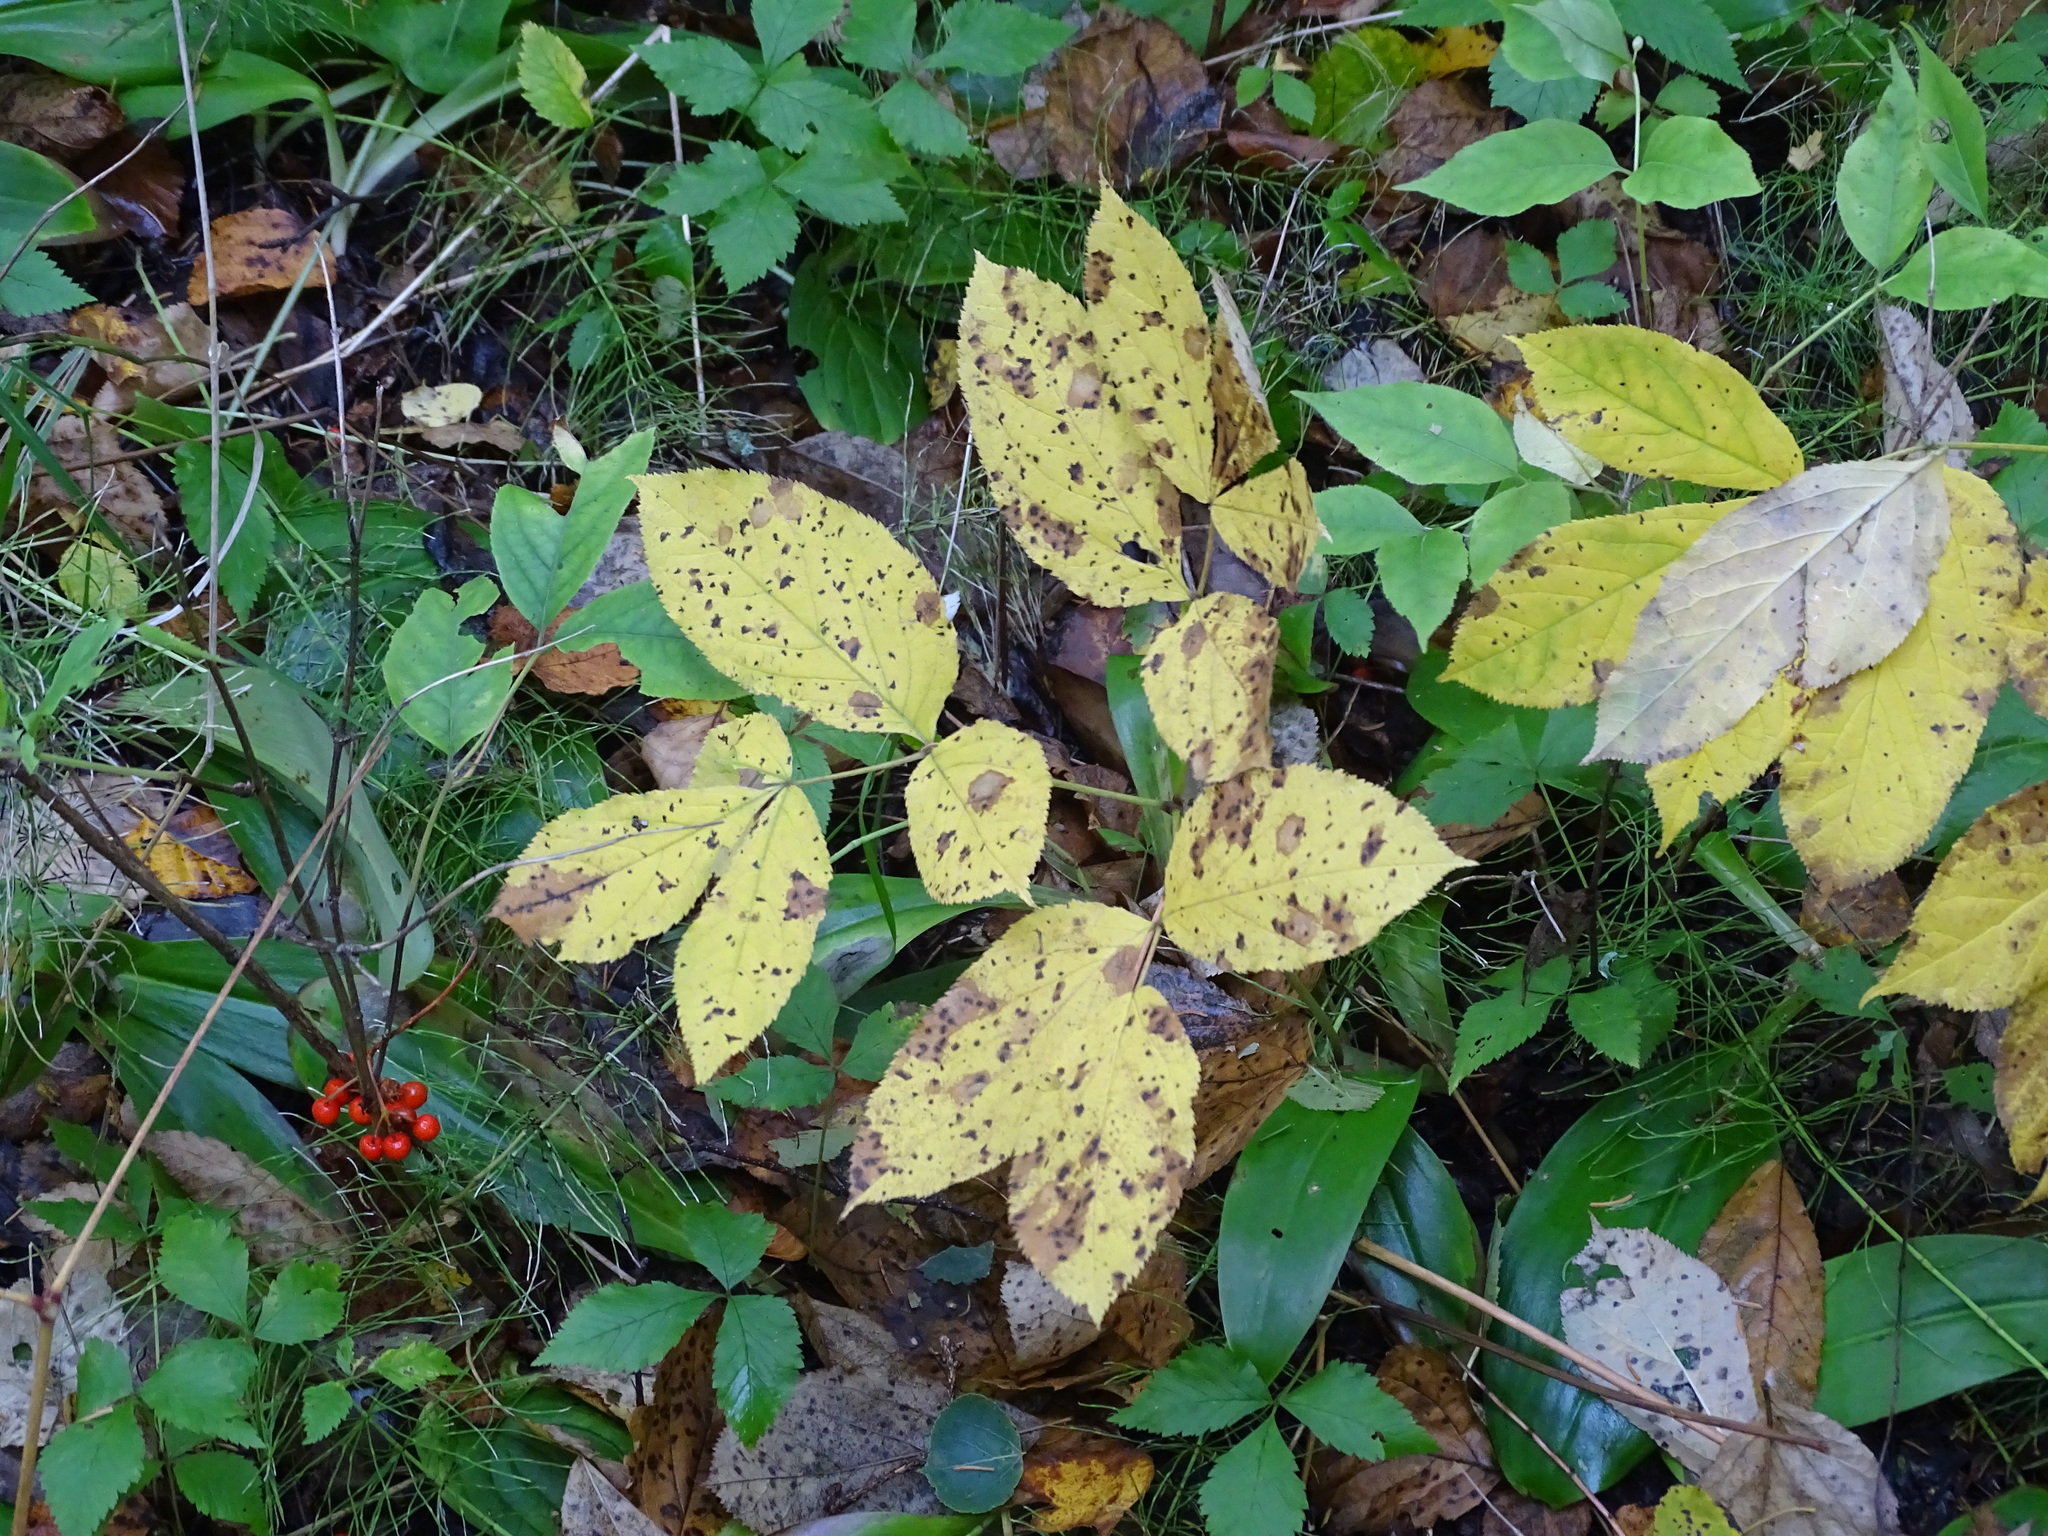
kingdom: Plantae
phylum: Tracheophyta
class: Magnoliopsida
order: Apiales
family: Araliaceae
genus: Aralia
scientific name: Aralia nudicaulis
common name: Wild sarsaparilla
